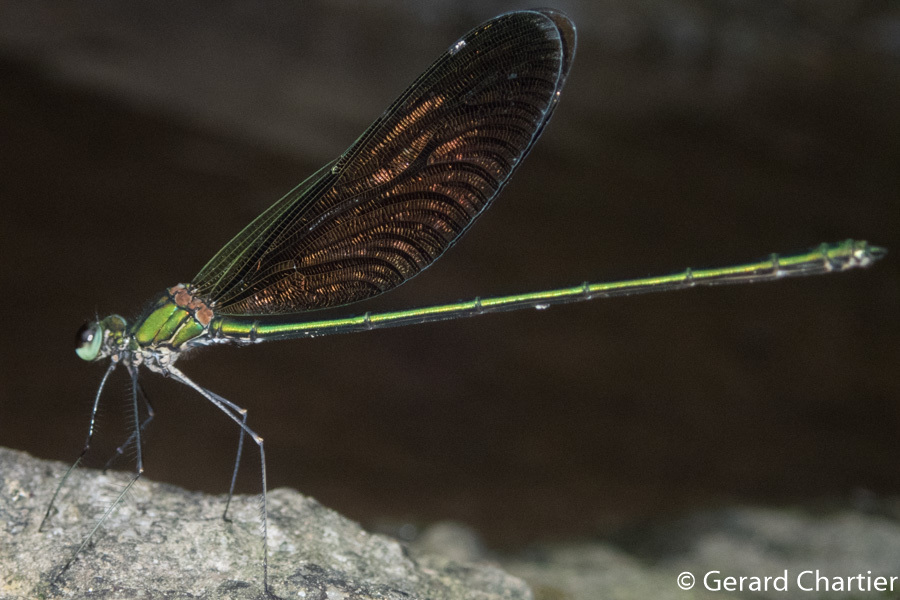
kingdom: Animalia
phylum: Arthropoda
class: Insecta
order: Odonata
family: Calopterygidae
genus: Neurobasis
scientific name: Neurobasis chinensis
